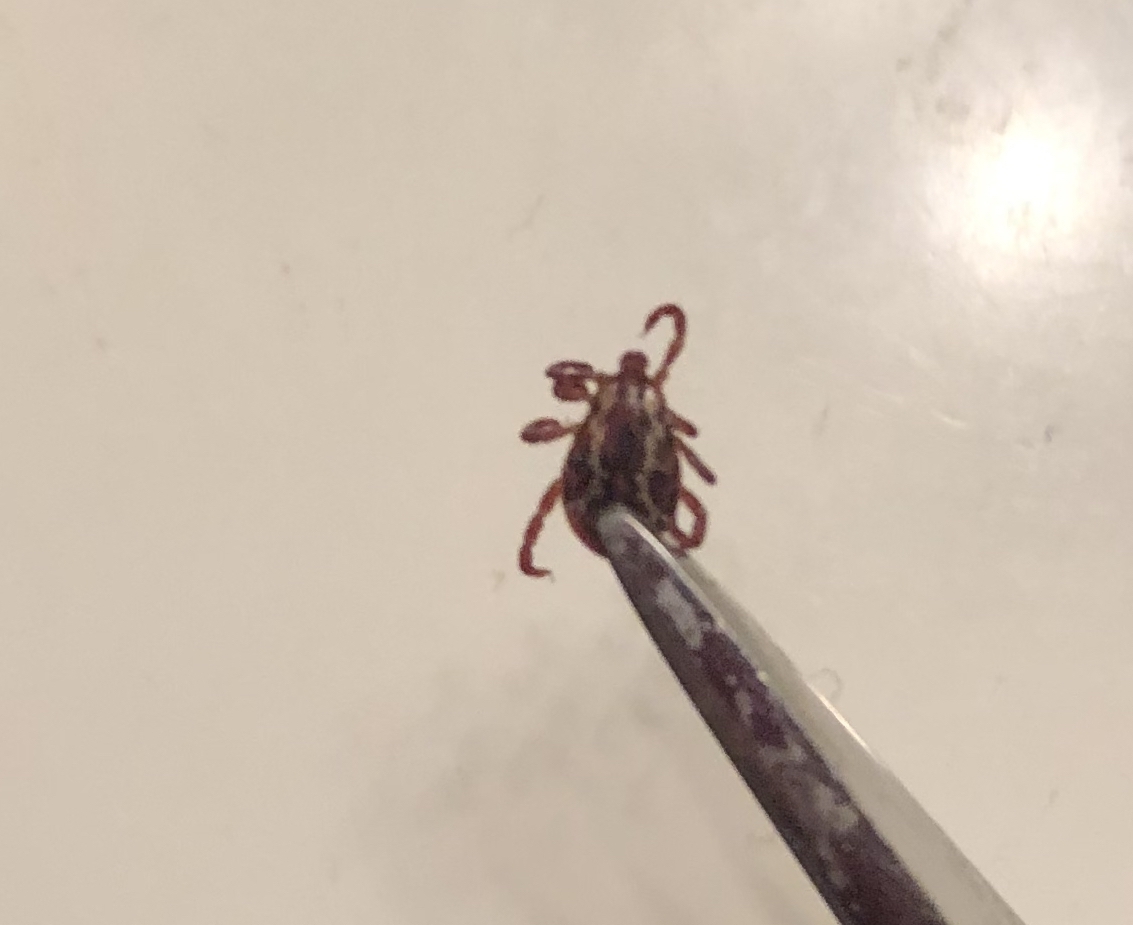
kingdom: Animalia
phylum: Arthropoda
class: Arachnida
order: Ixodida
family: Ixodidae
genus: Dermacentor
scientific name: Dermacentor variabilis
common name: American dog tick
